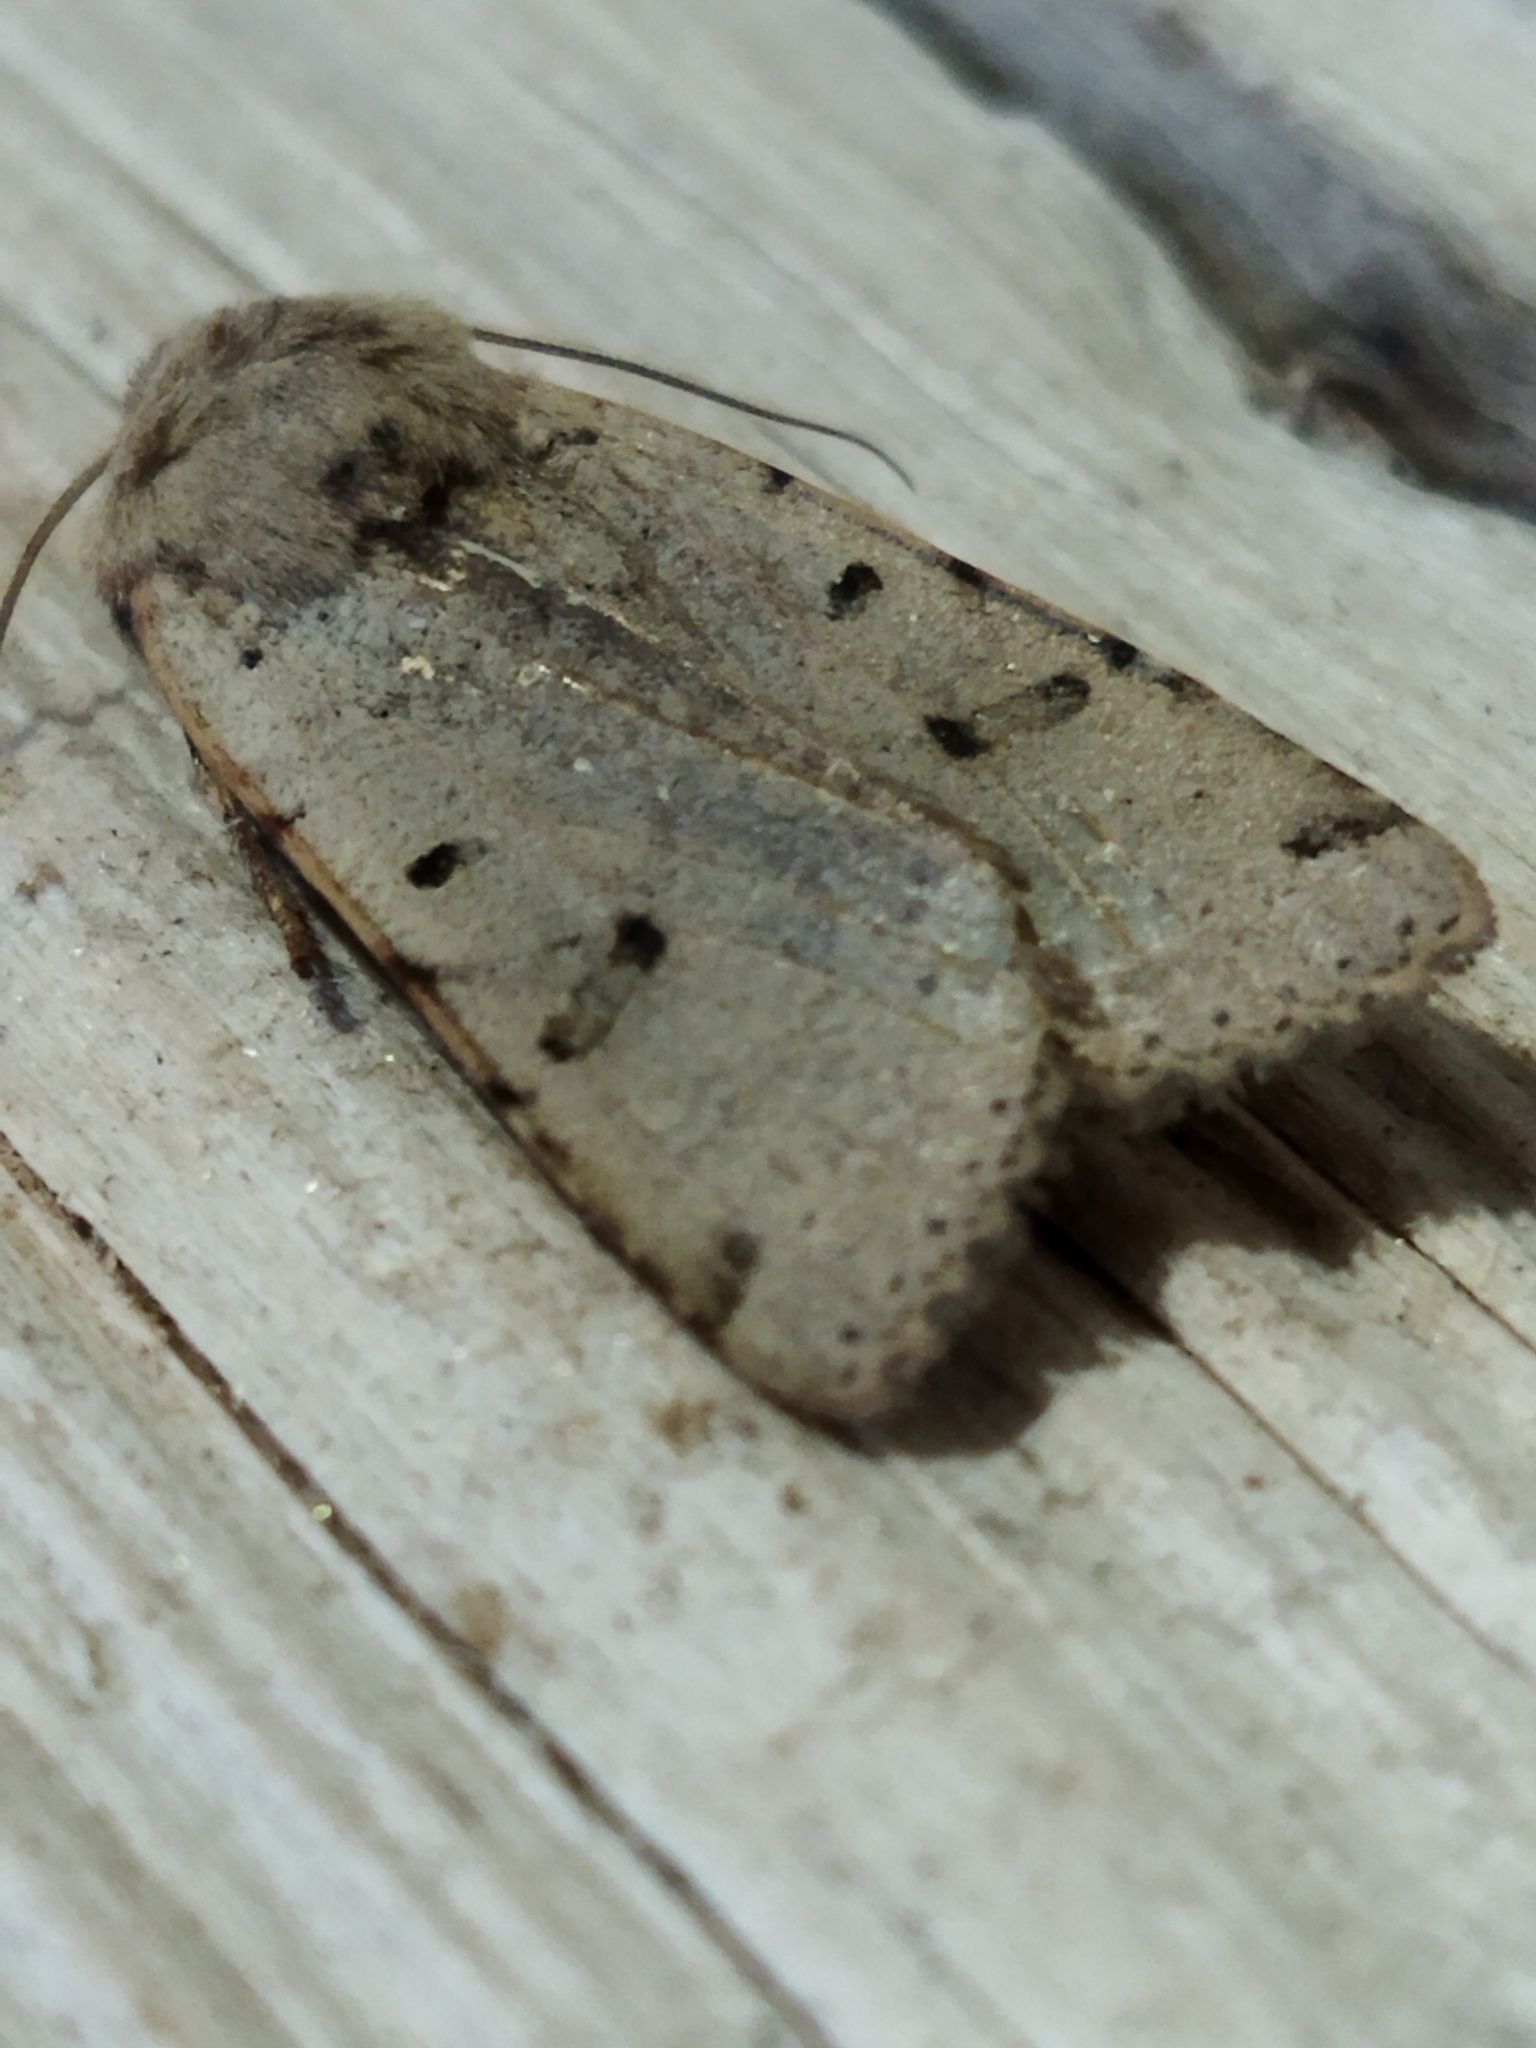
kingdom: Animalia
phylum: Arthropoda
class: Insecta
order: Lepidoptera
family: Noctuidae
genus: Agrochola
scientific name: Agrochola lychnidis
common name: Beaded chestnut
